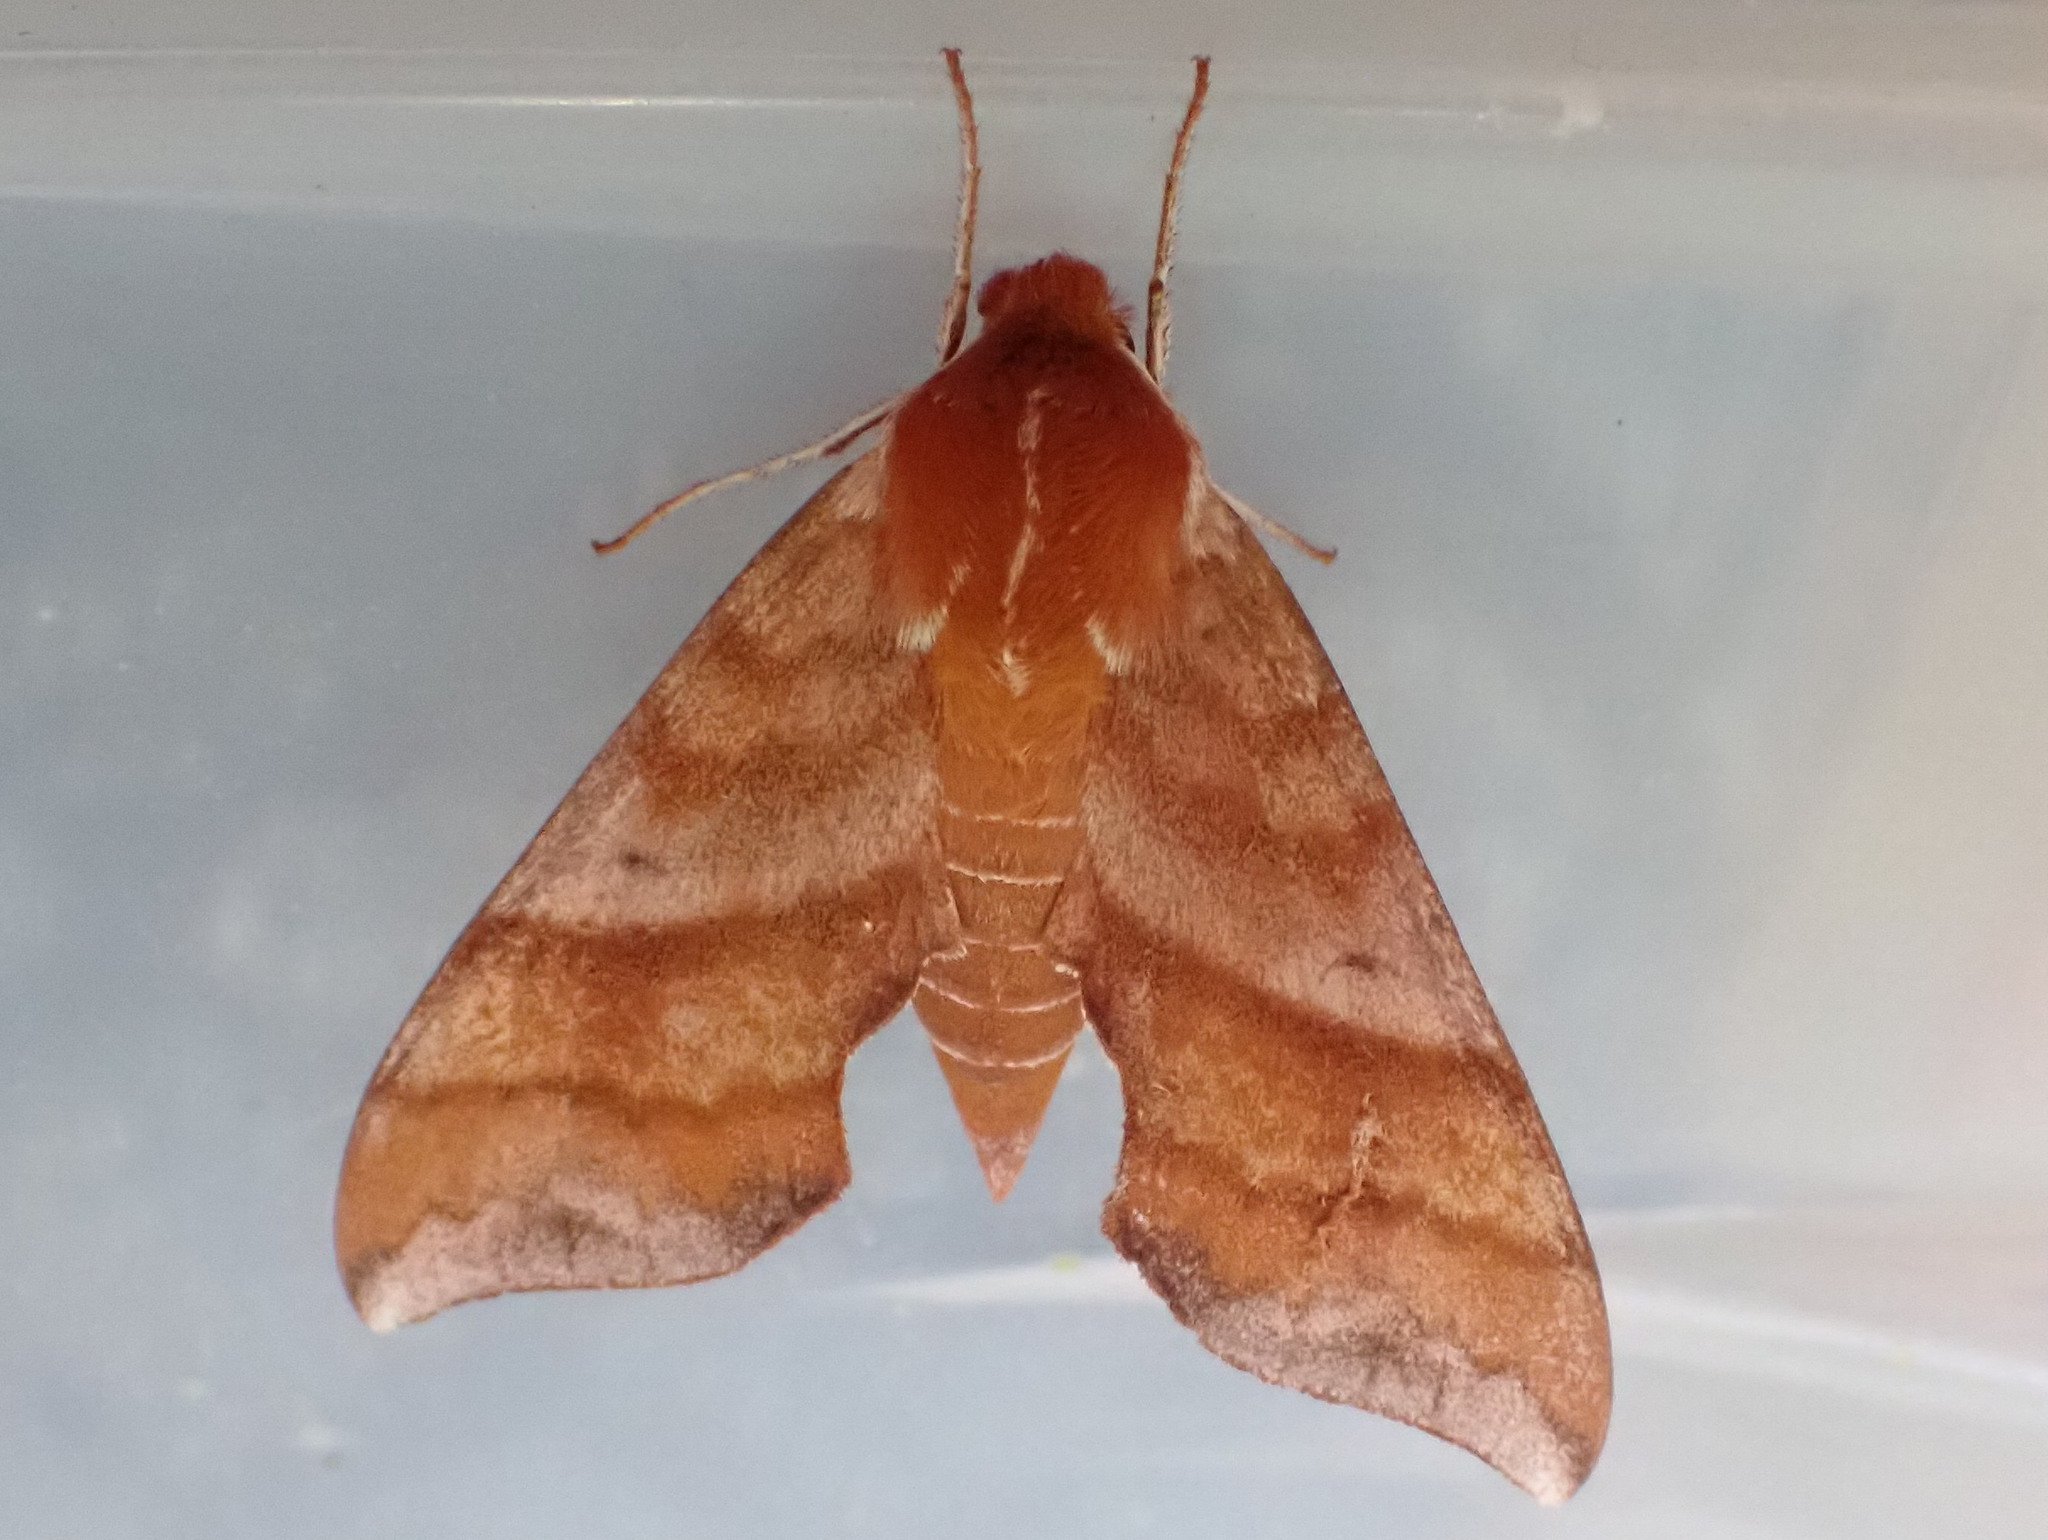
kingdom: Animalia
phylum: Arthropoda
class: Insecta
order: Lepidoptera
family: Sphingidae
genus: Darapsa
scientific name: Darapsa choerilus
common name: Azalea sphinx
